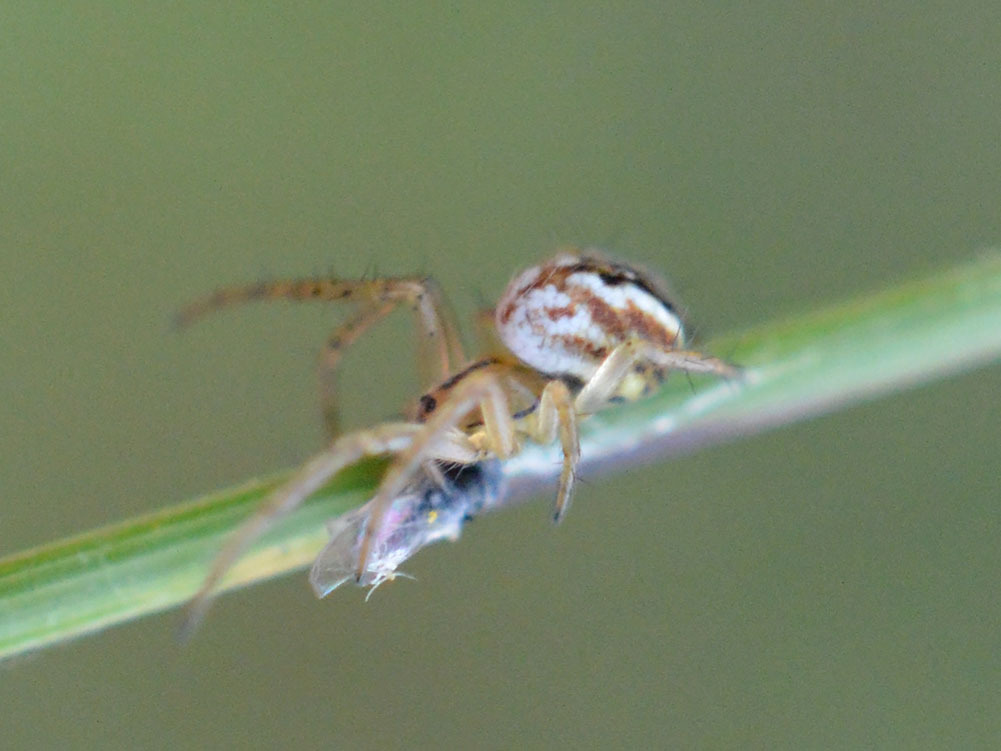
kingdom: Animalia
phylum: Arthropoda
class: Arachnida
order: Araneae
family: Araneidae
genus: Mangora
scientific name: Mangora acalypha
